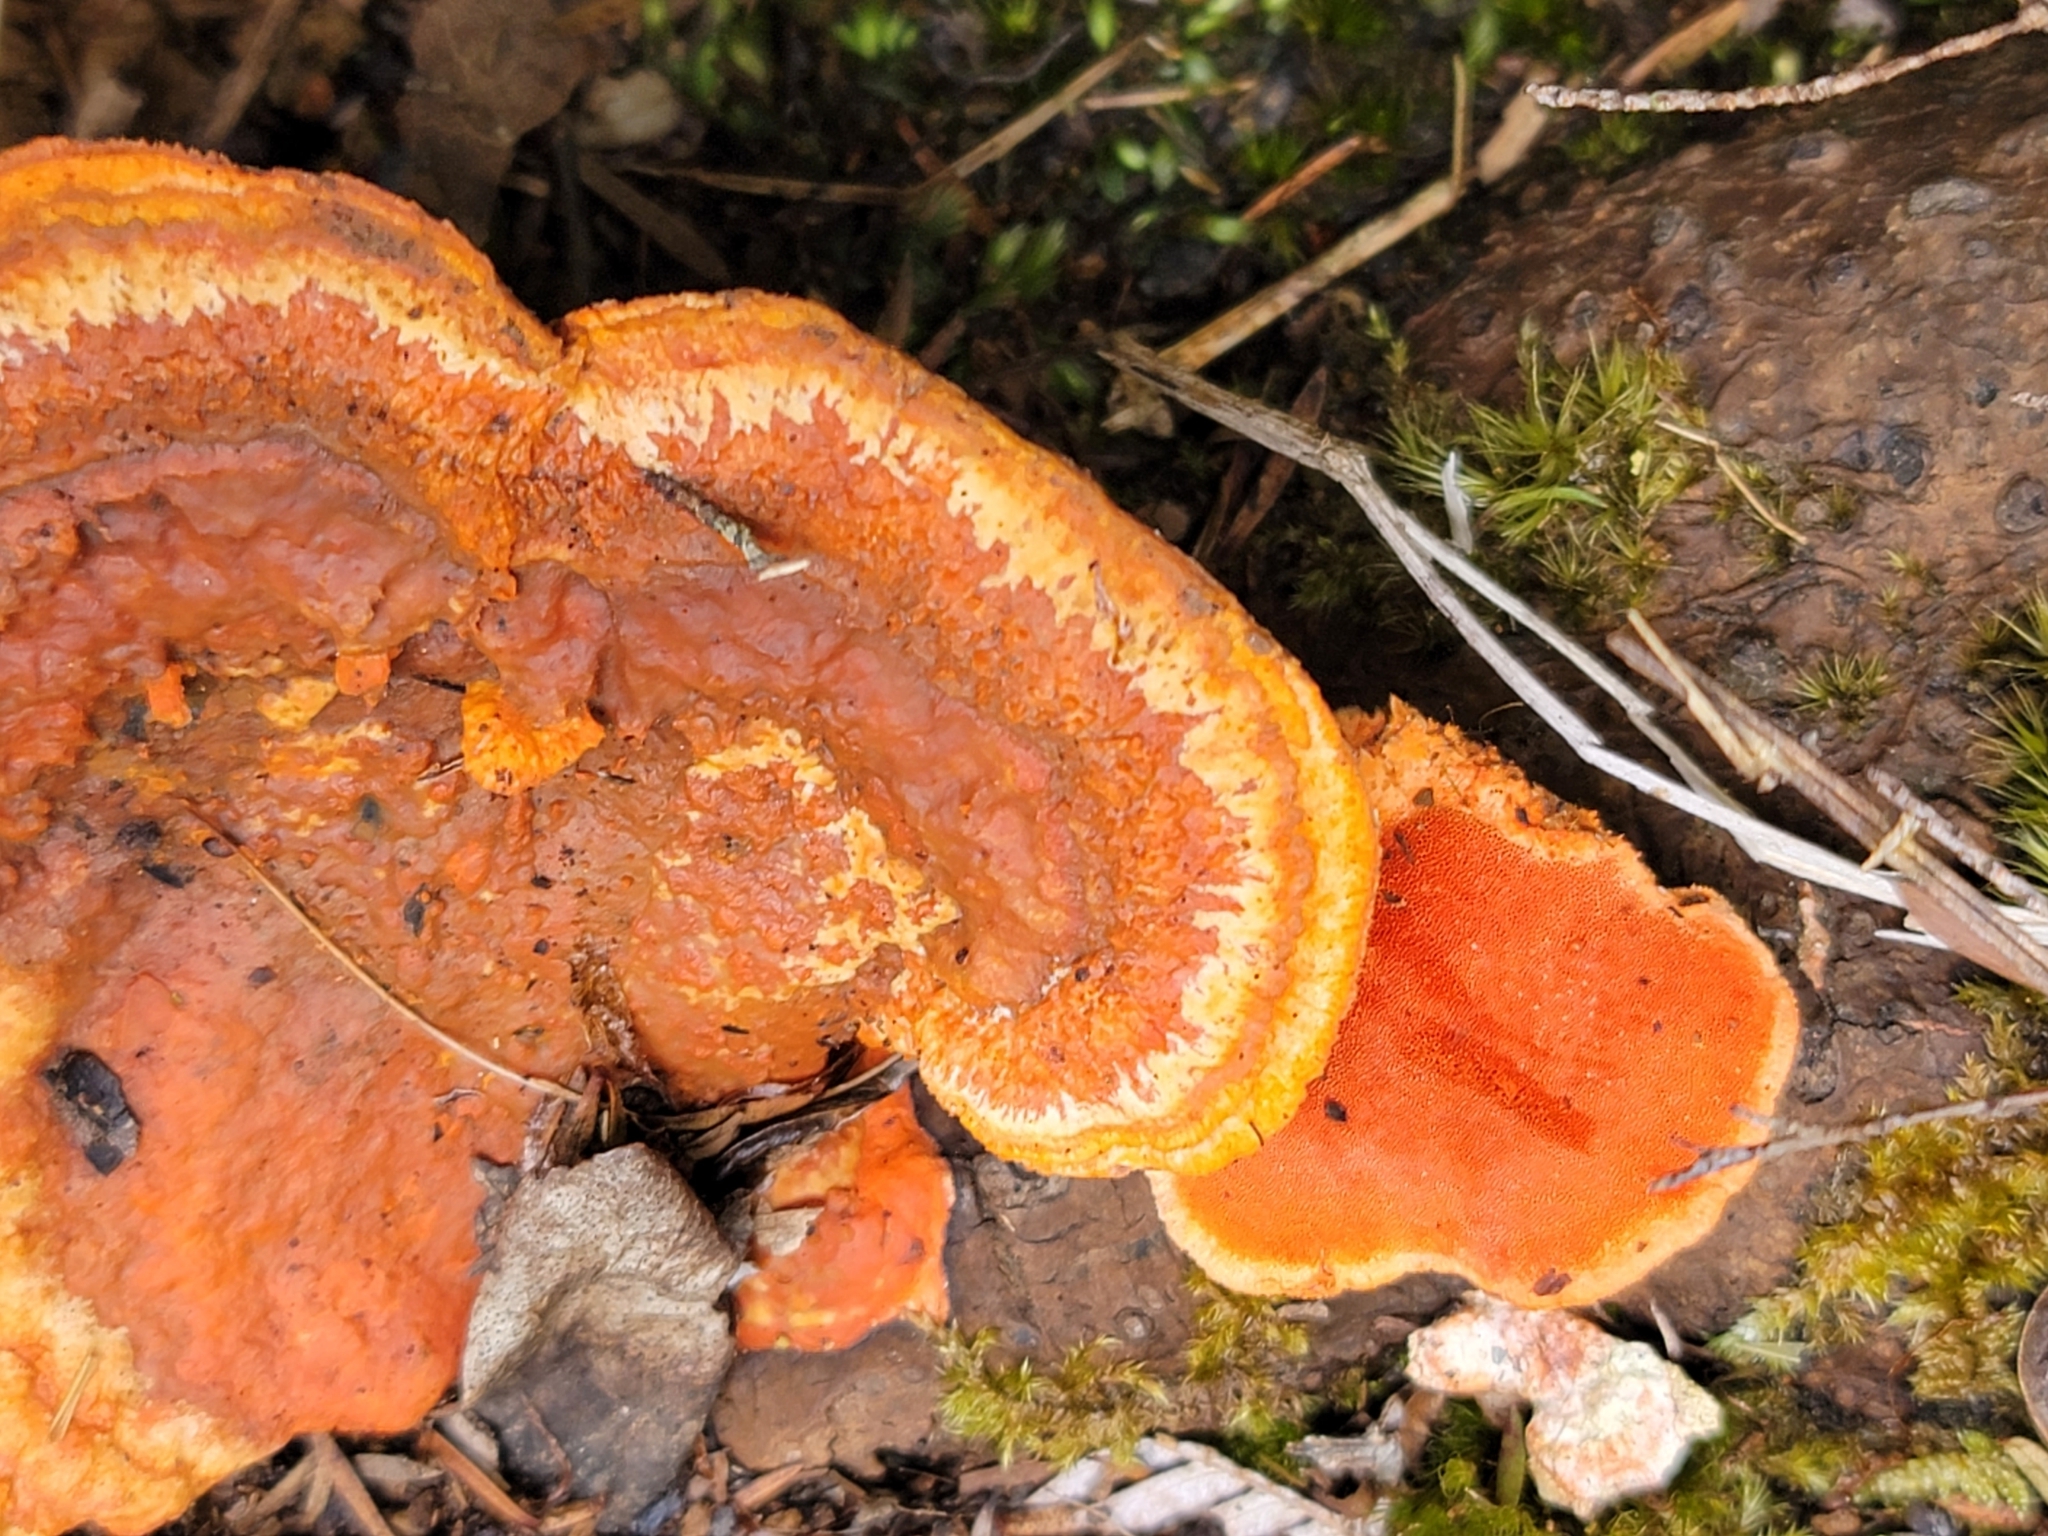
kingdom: Fungi
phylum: Basidiomycota
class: Agaricomycetes
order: Polyporales
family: Polyporaceae
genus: Trametes
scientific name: Trametes coccinea
